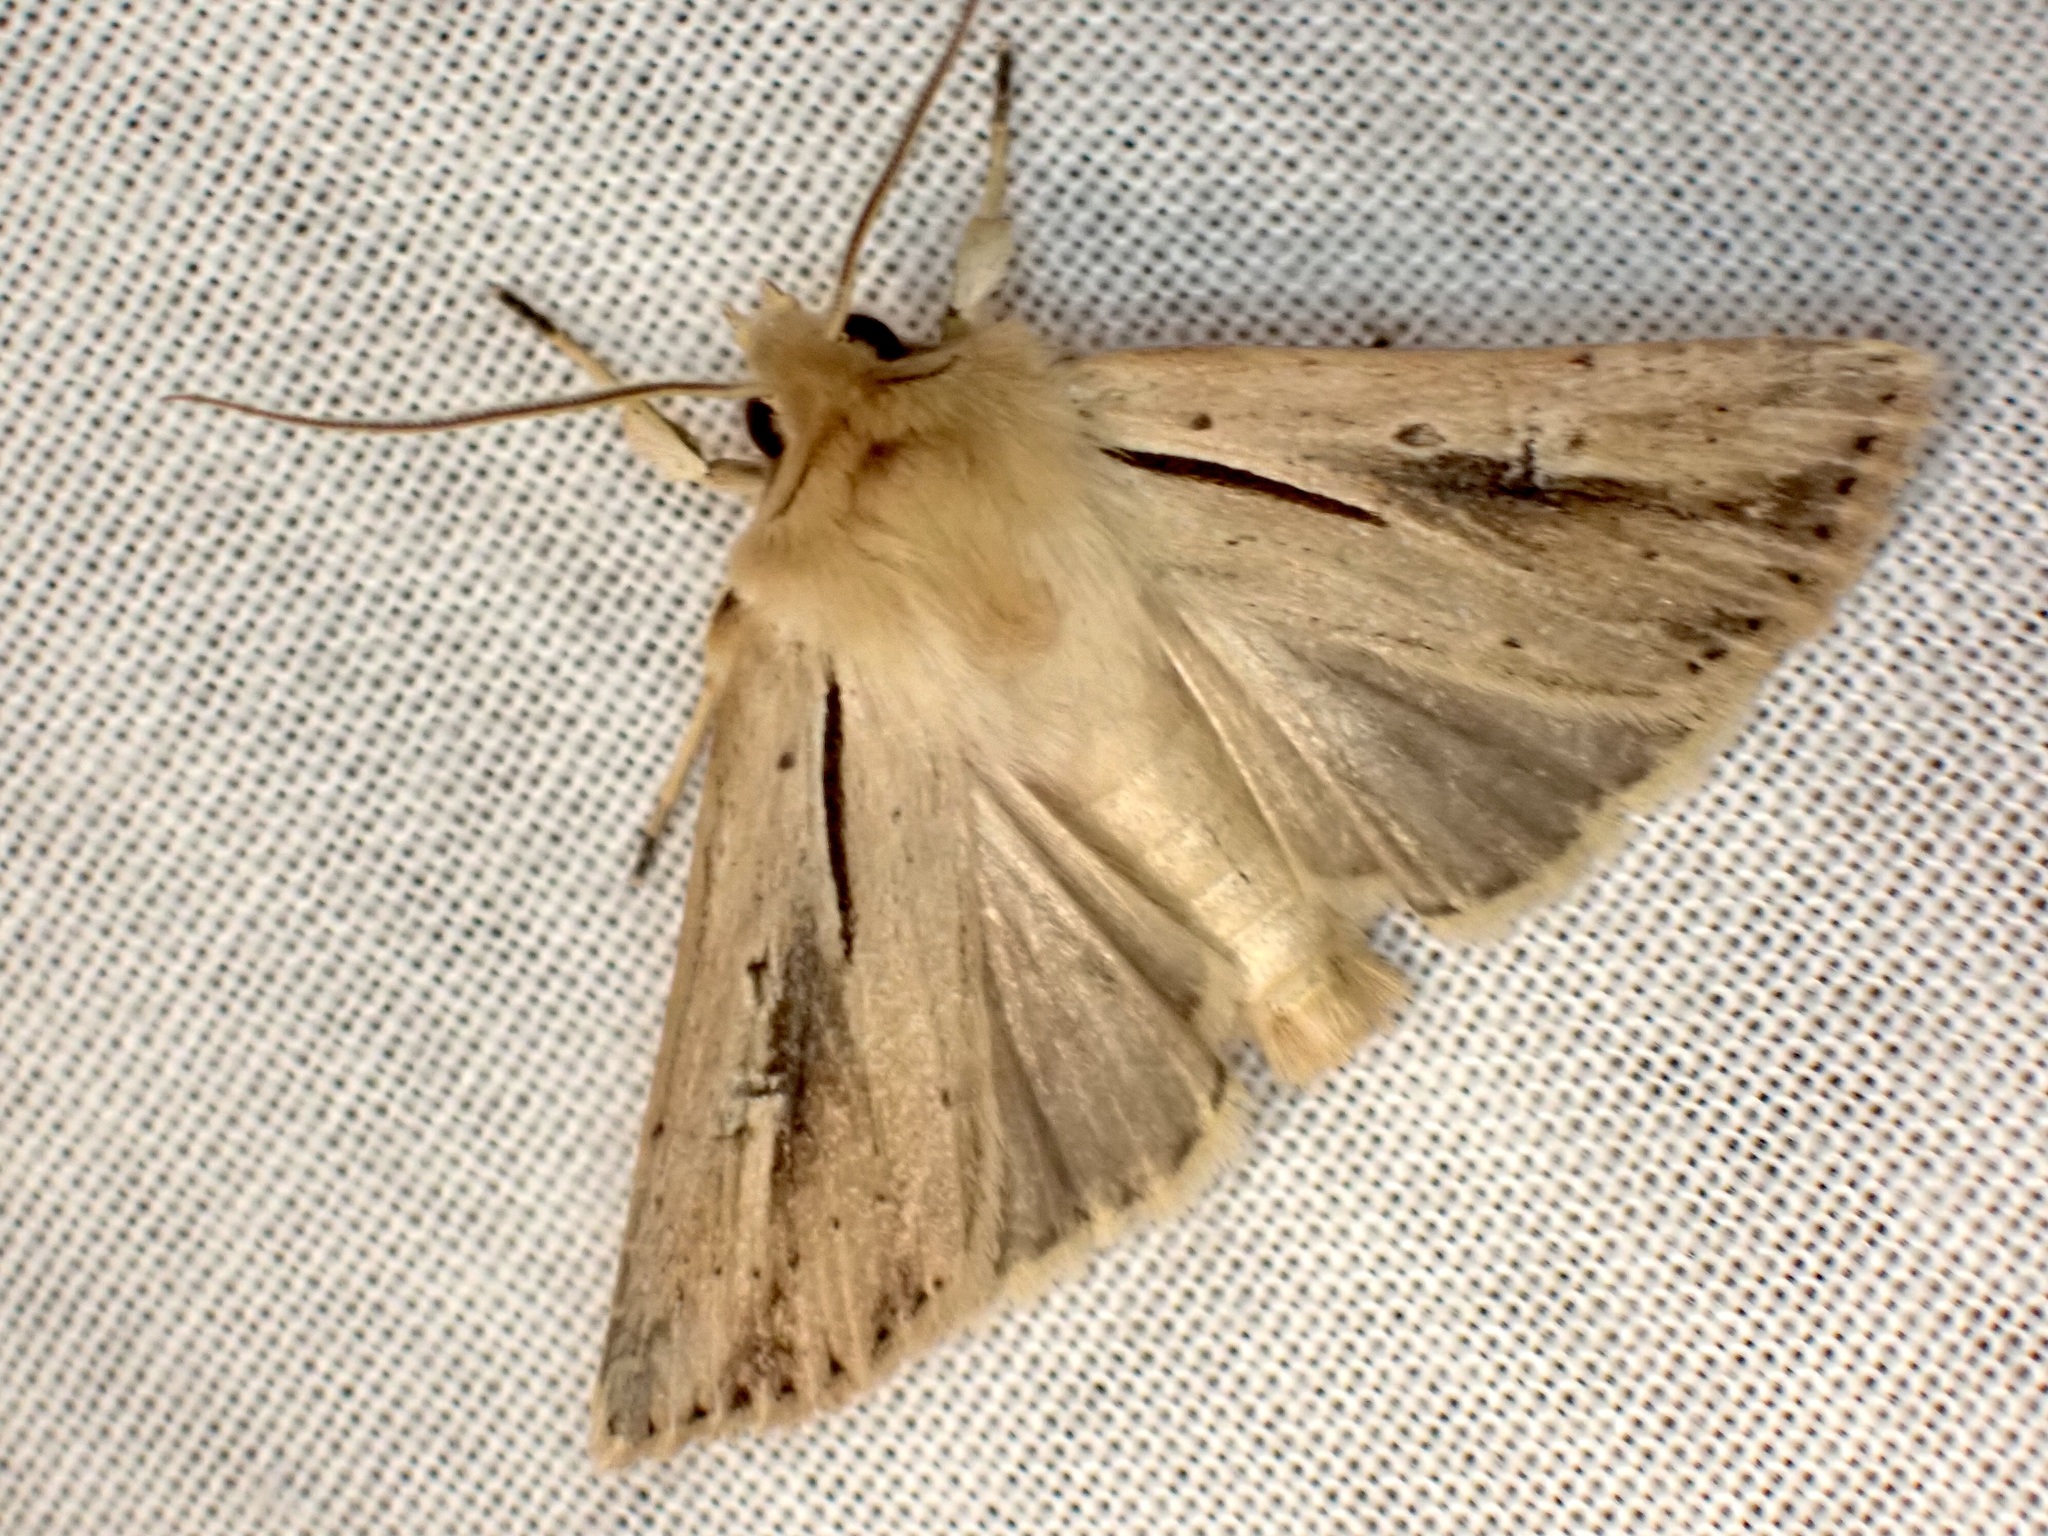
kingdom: Animalia
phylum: Arthropoda
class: Insecta
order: Lepidoptera
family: Noctuidae
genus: Ichneutica
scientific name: Ichneutica propria
